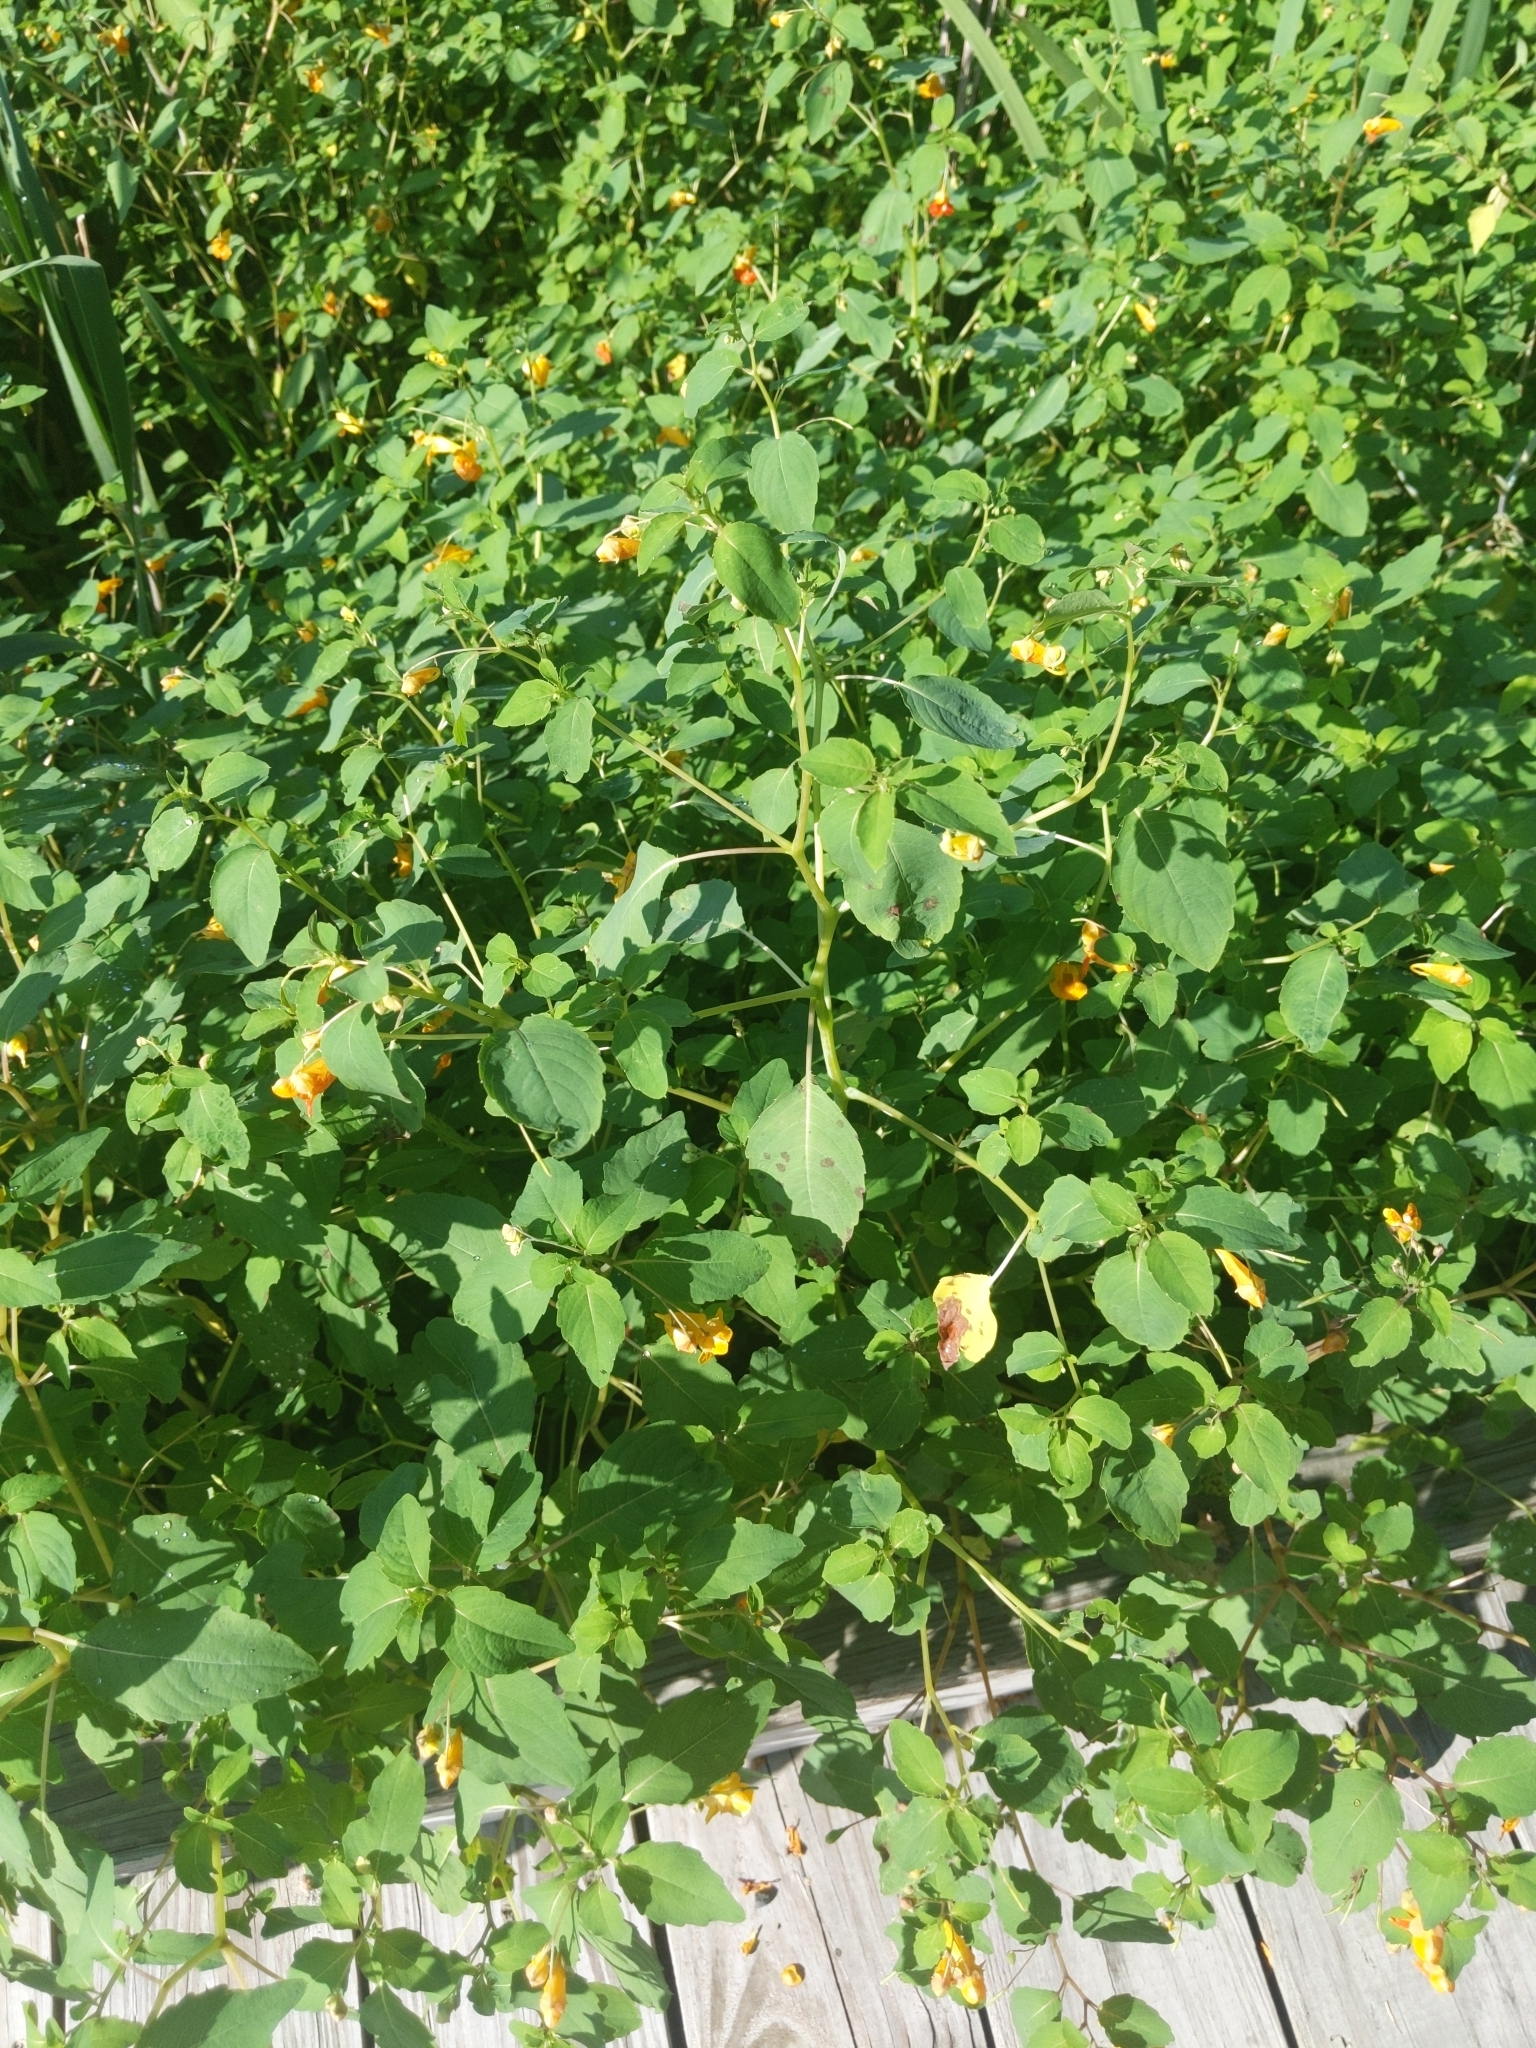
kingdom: Plantae
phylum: Tracheophyta
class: Magnoliopsida
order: Ericales
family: Balsaminaceae
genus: Impatiens
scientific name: Impatiens capensis
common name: Orange balsam
